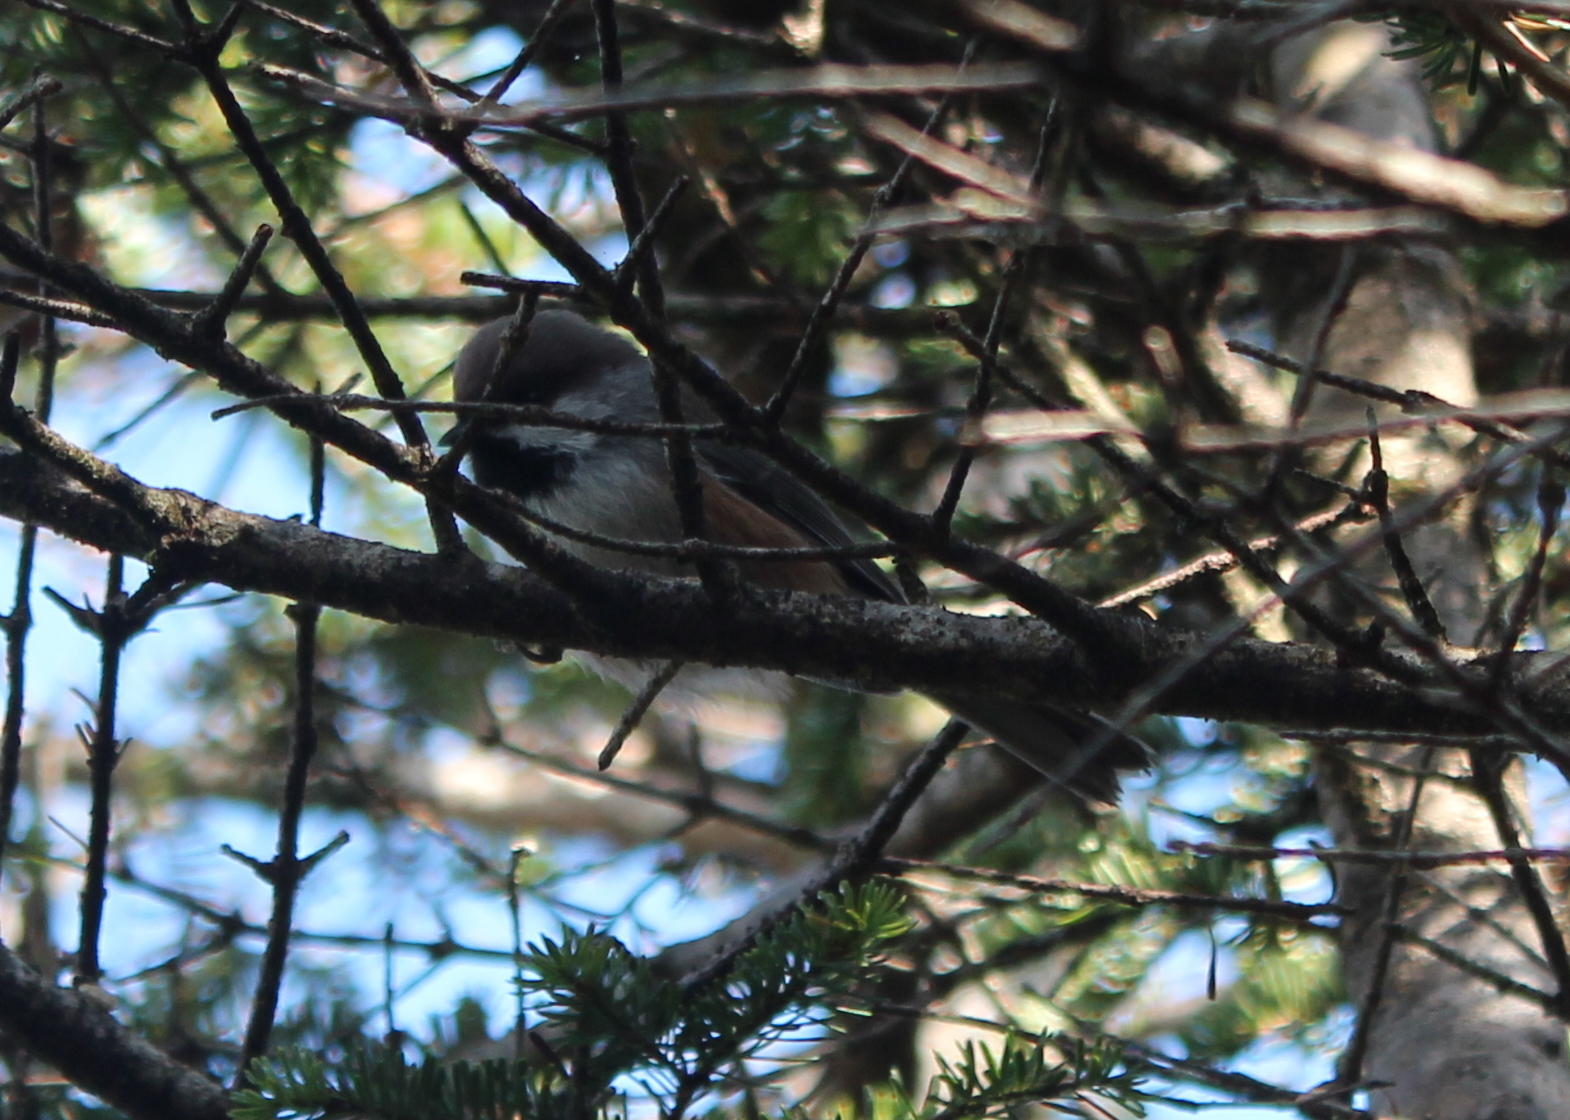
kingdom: Animalia
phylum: Chordata
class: Aves
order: Passeriformes
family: Paridae
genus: Poecile
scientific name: Poecile hudsonicus
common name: Boreal chickadee
